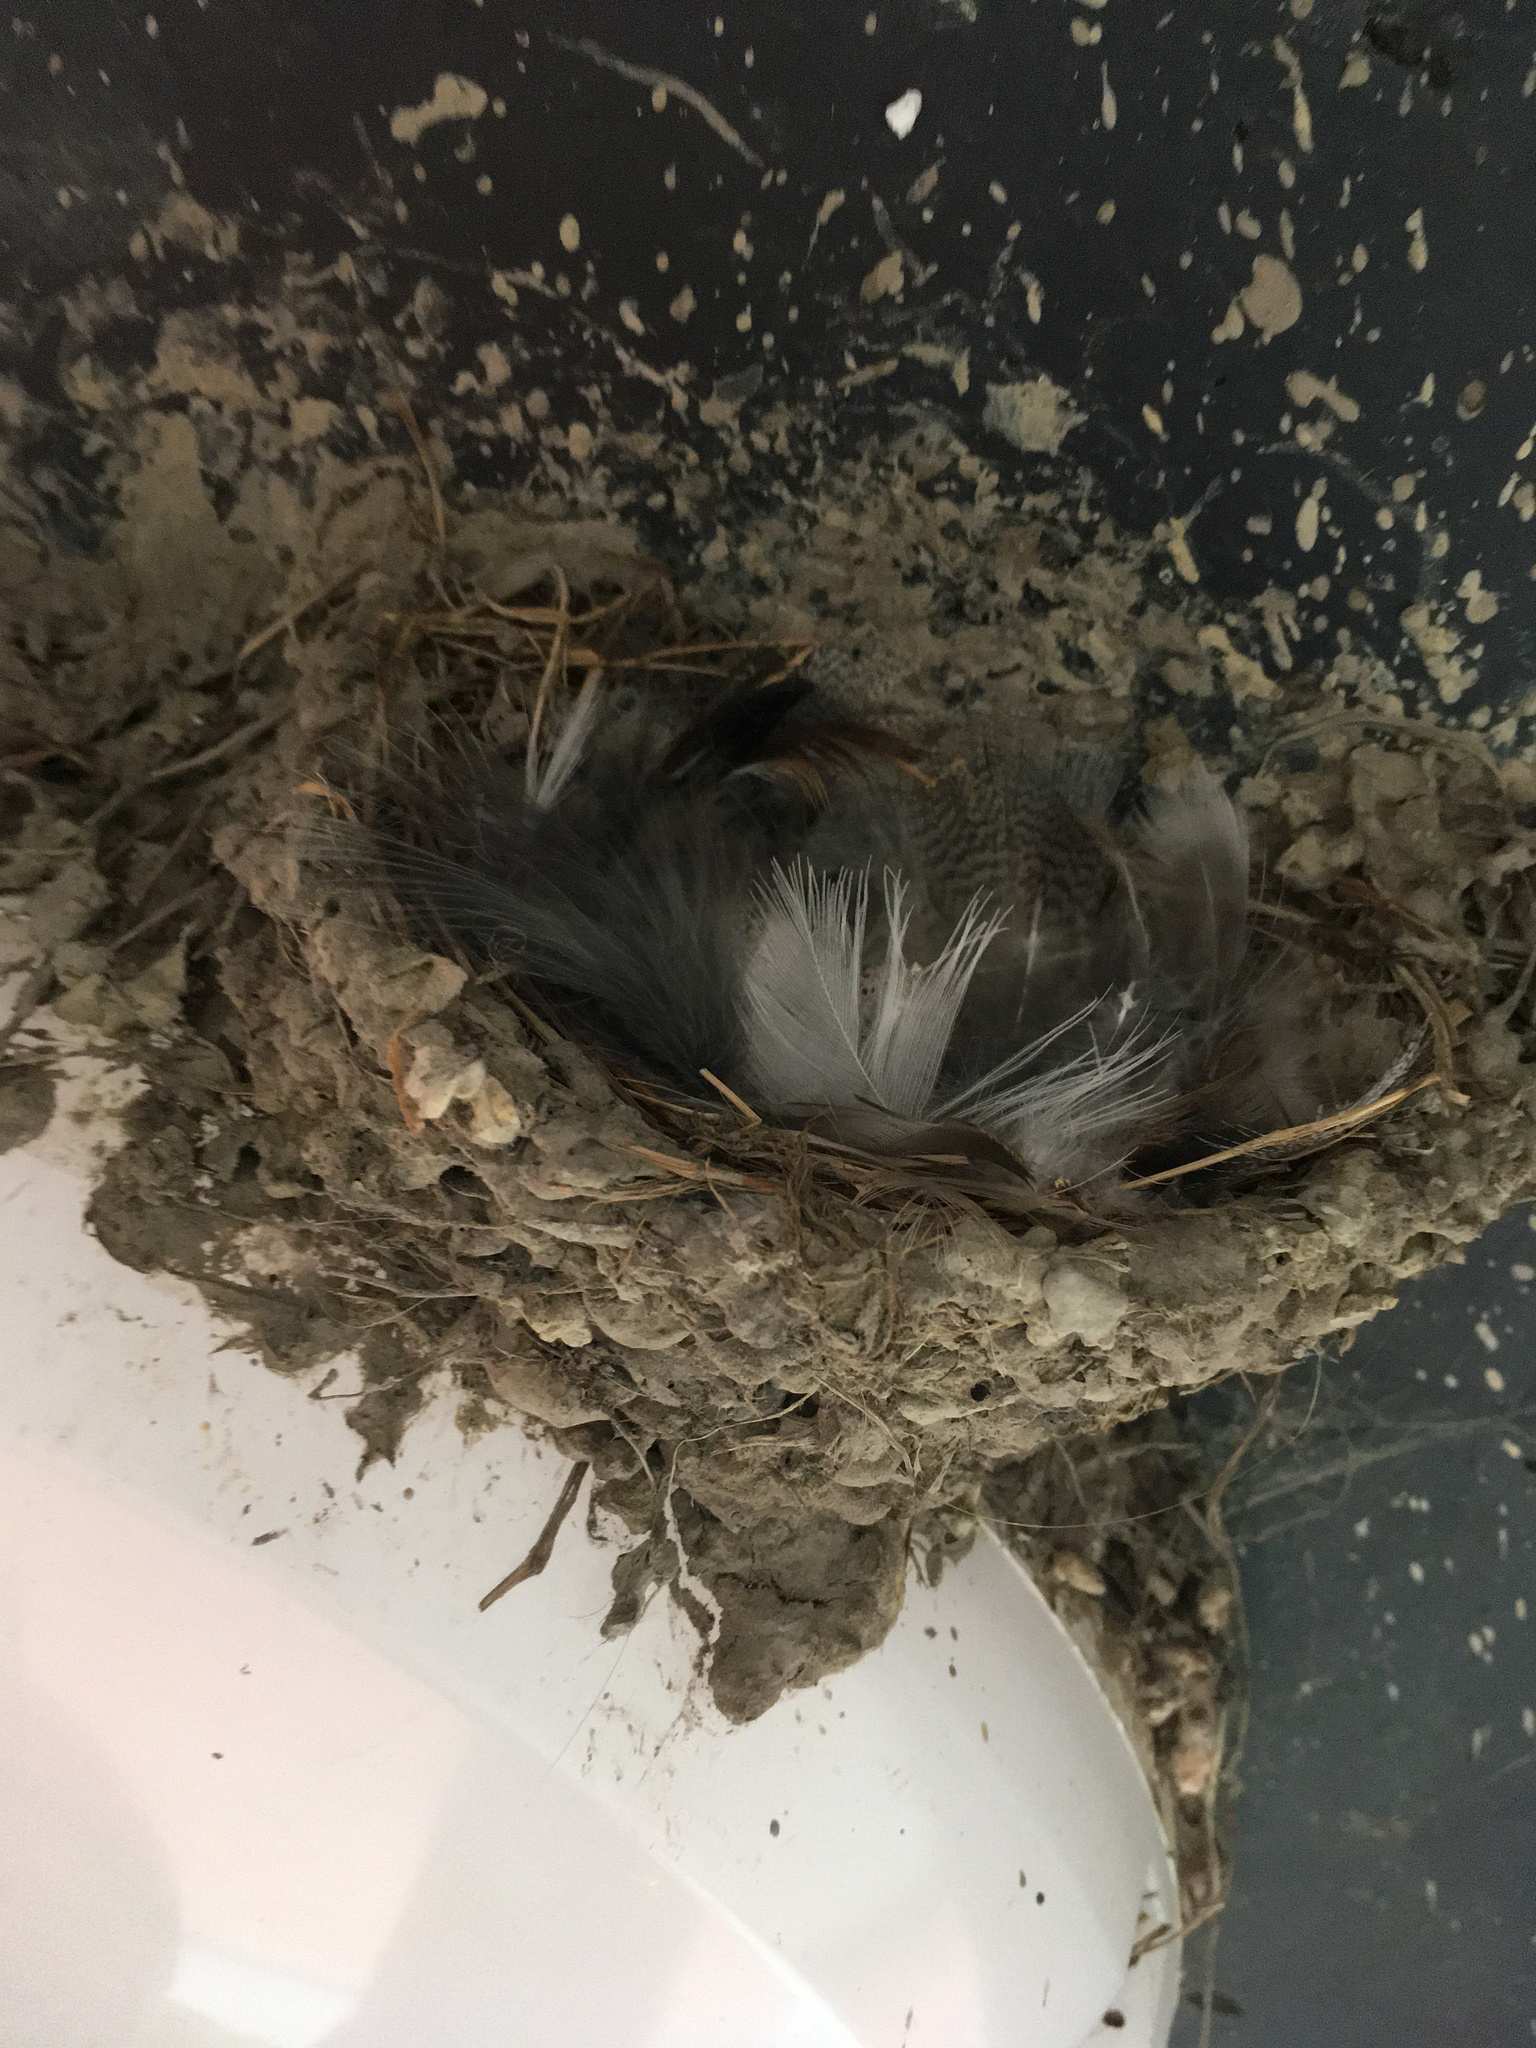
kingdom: Animalia
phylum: Chordata
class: Aves
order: Passeriformes
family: Hirundinidae
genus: Hirundo
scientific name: Hirundo neoxena
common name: Welcome swallow
